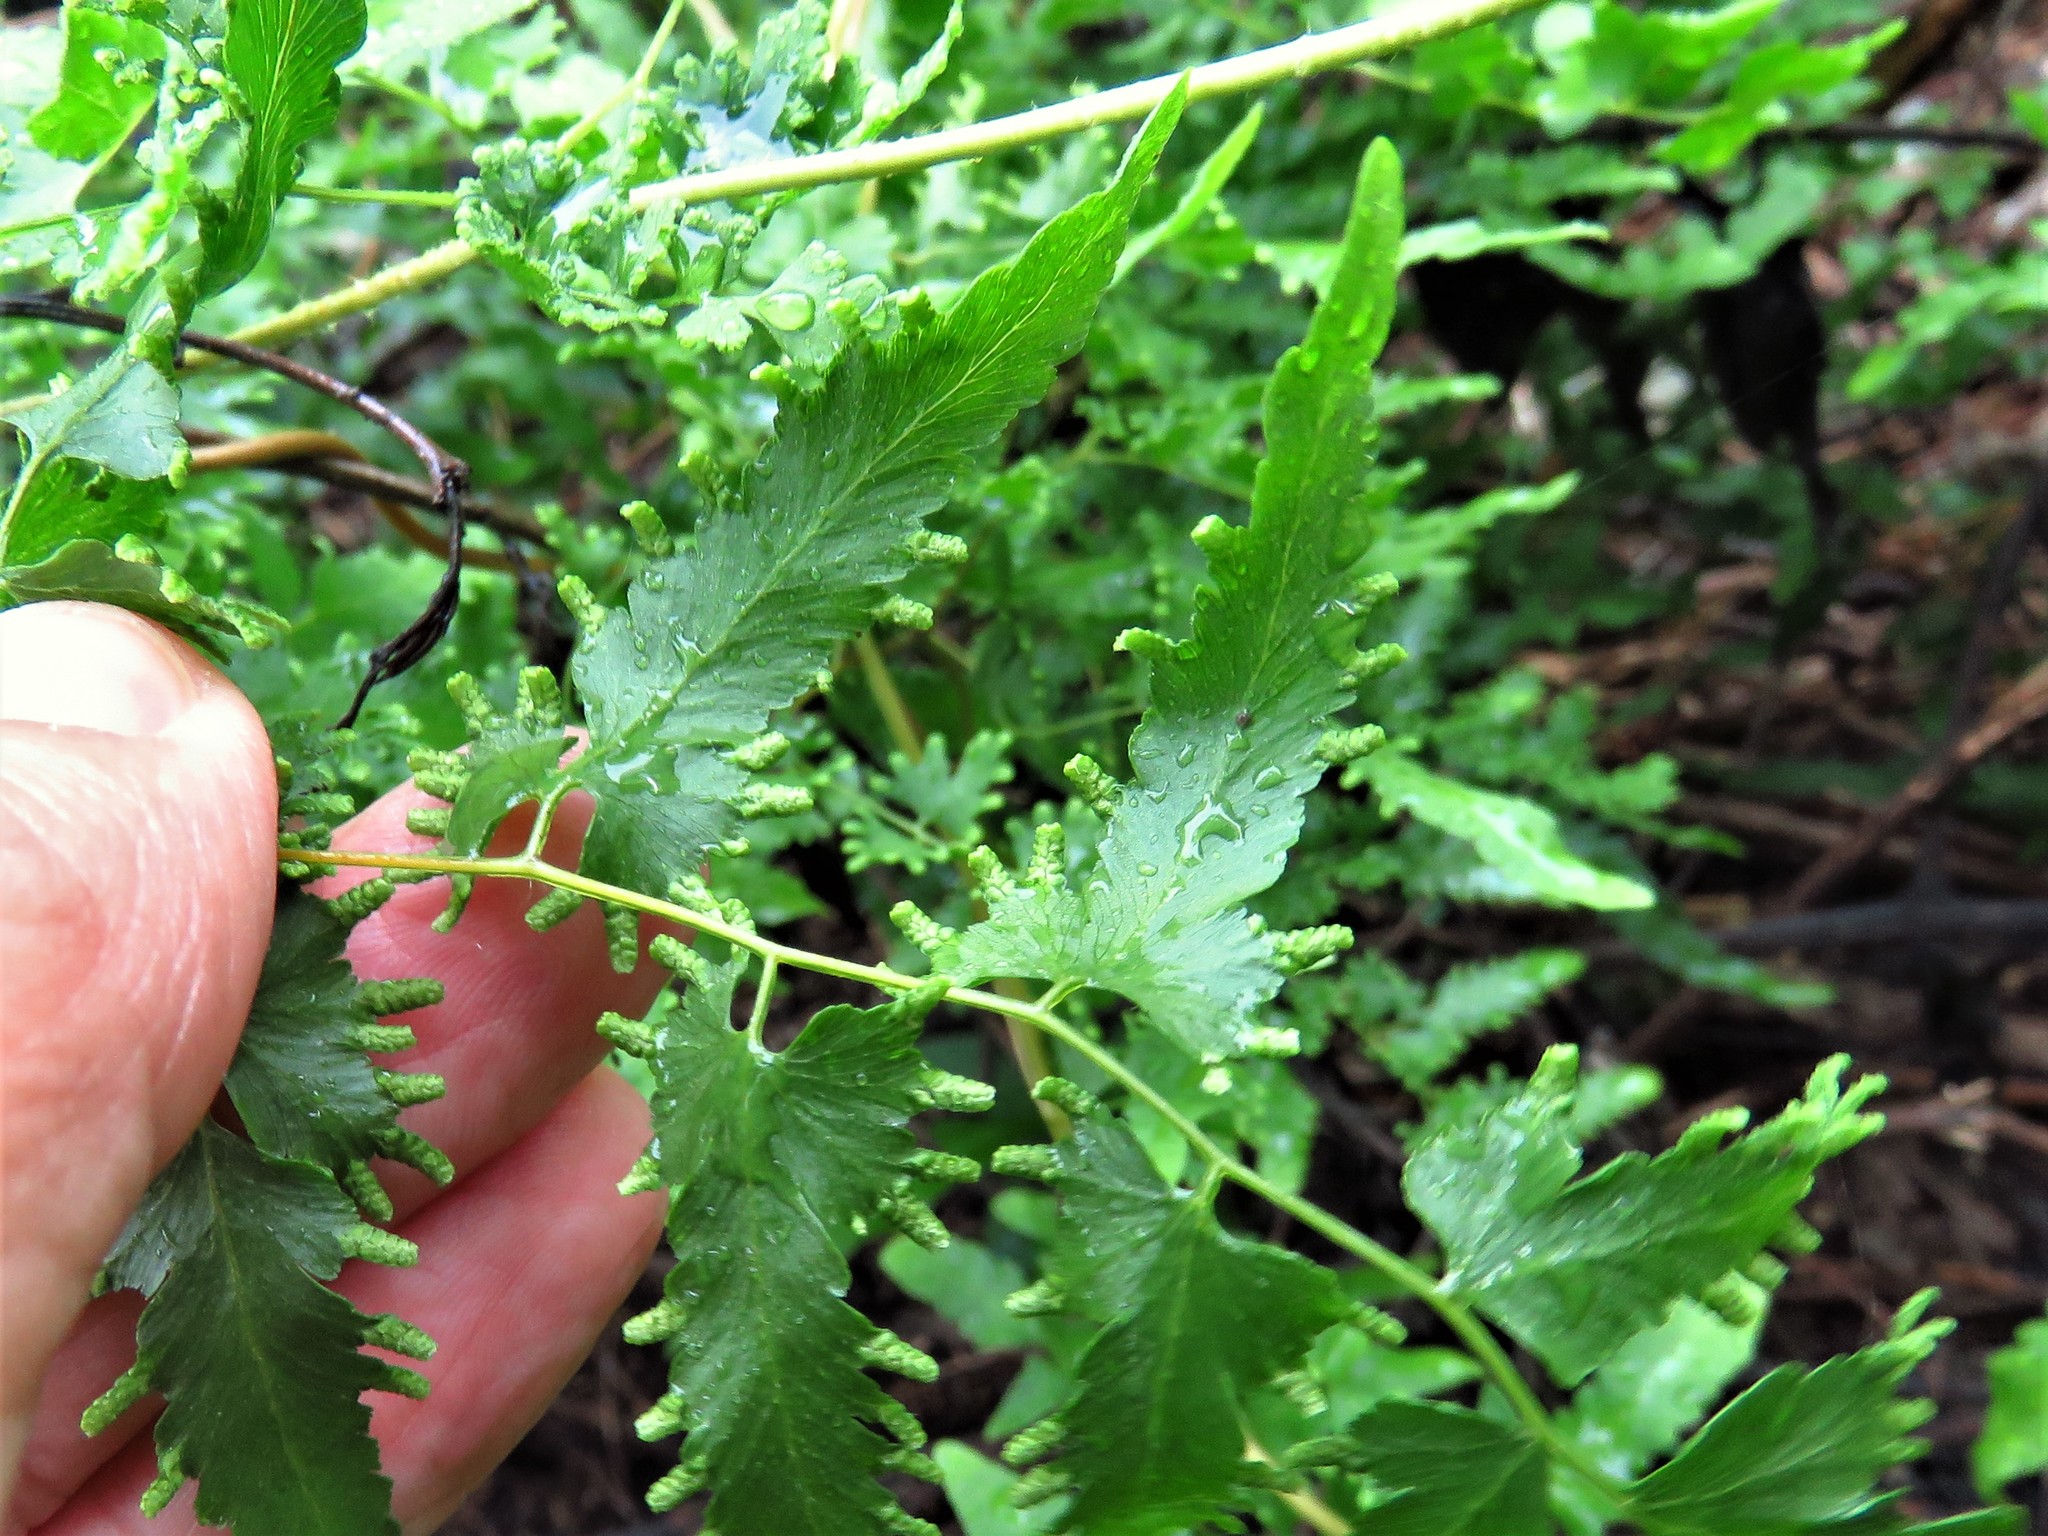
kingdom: Plantae
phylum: Tracheophyta
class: Polypodiopsida
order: Schizaeales
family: Lygodiaceae
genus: Lygodium
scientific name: Lygodium venustum
